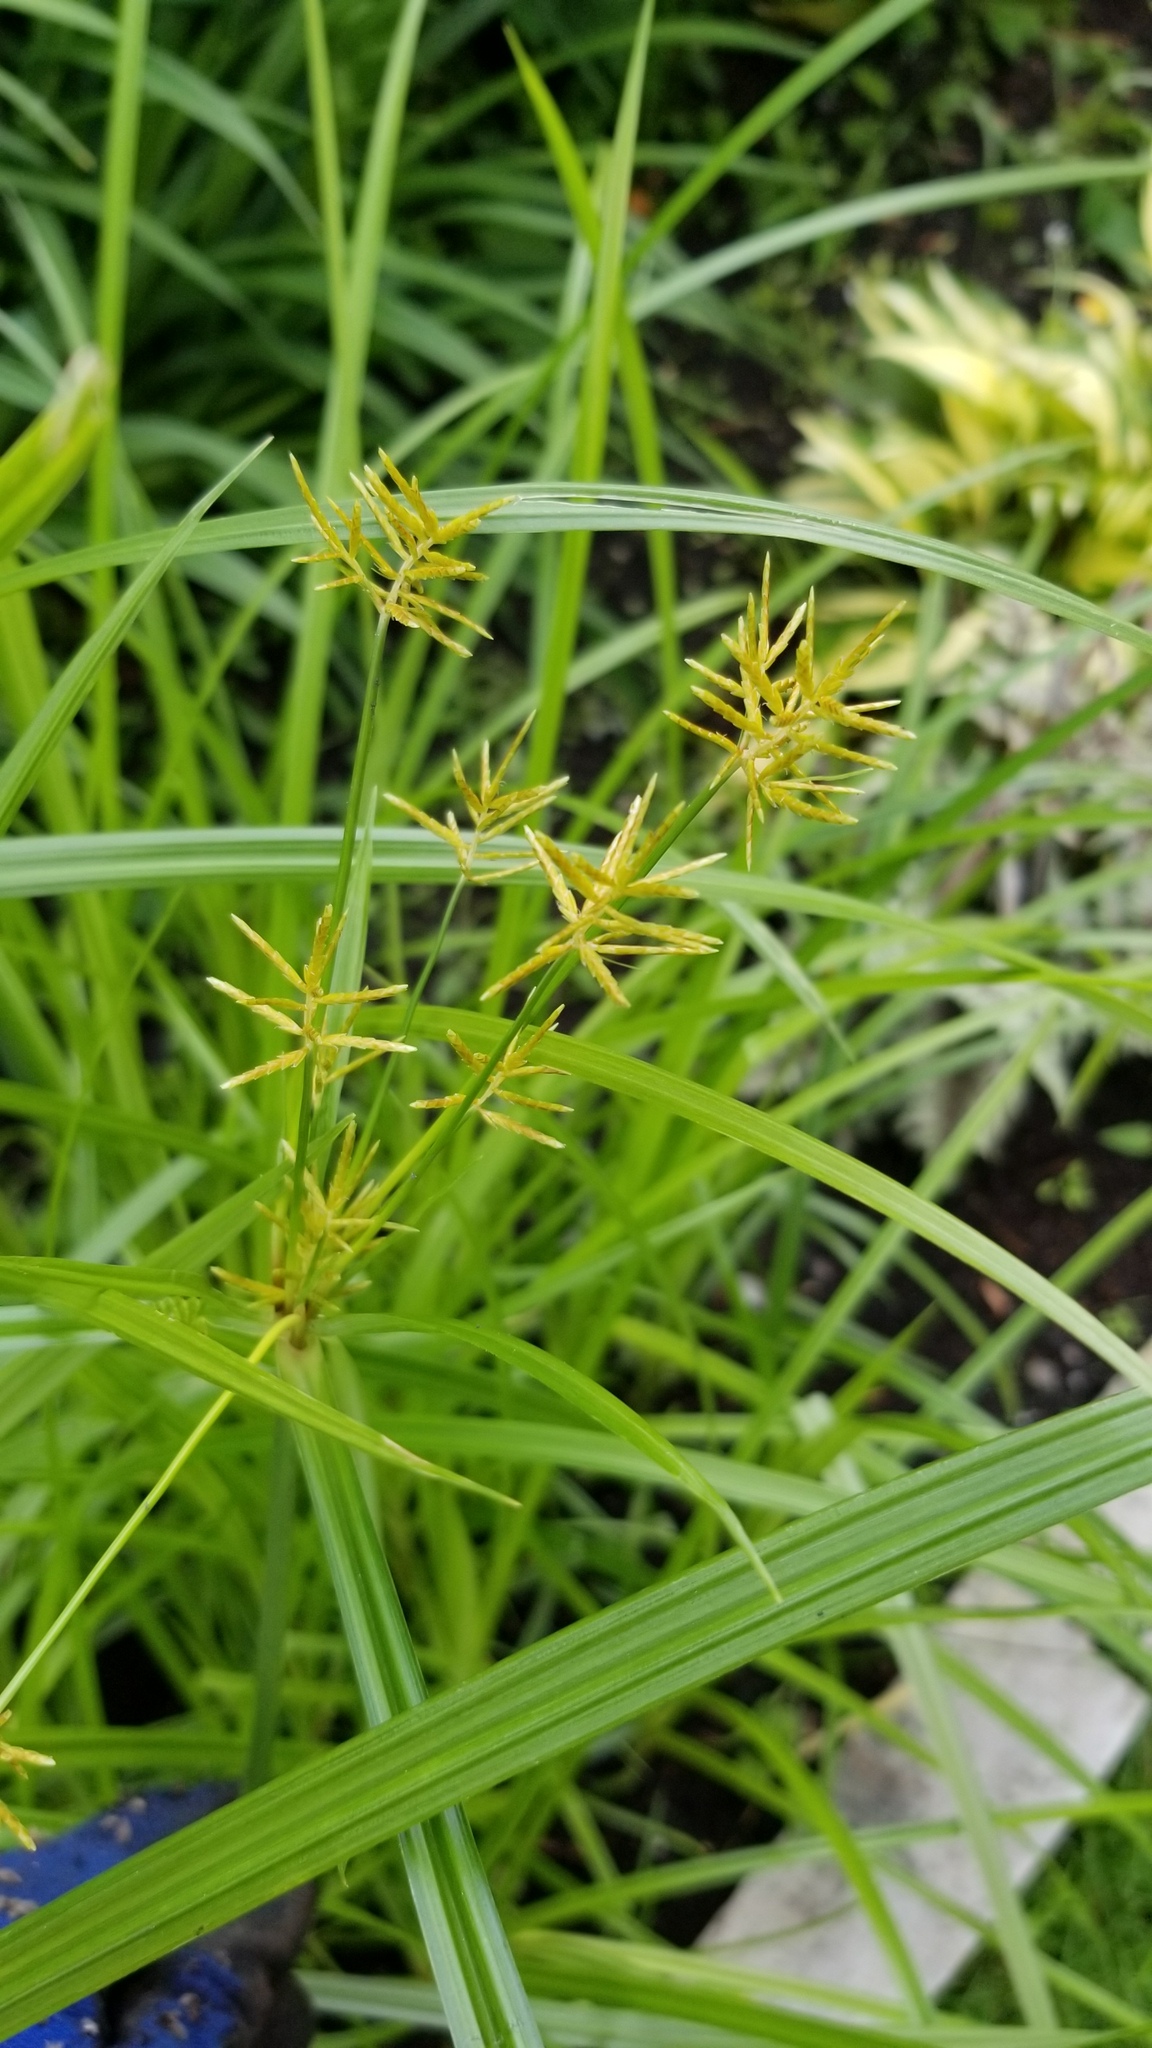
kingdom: Plantae
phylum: Tracheophyta
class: Liliopsida
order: Poales
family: Cyperaceae
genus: Cyperus
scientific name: Cyperus esculentus
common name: Yellow nutsedge
